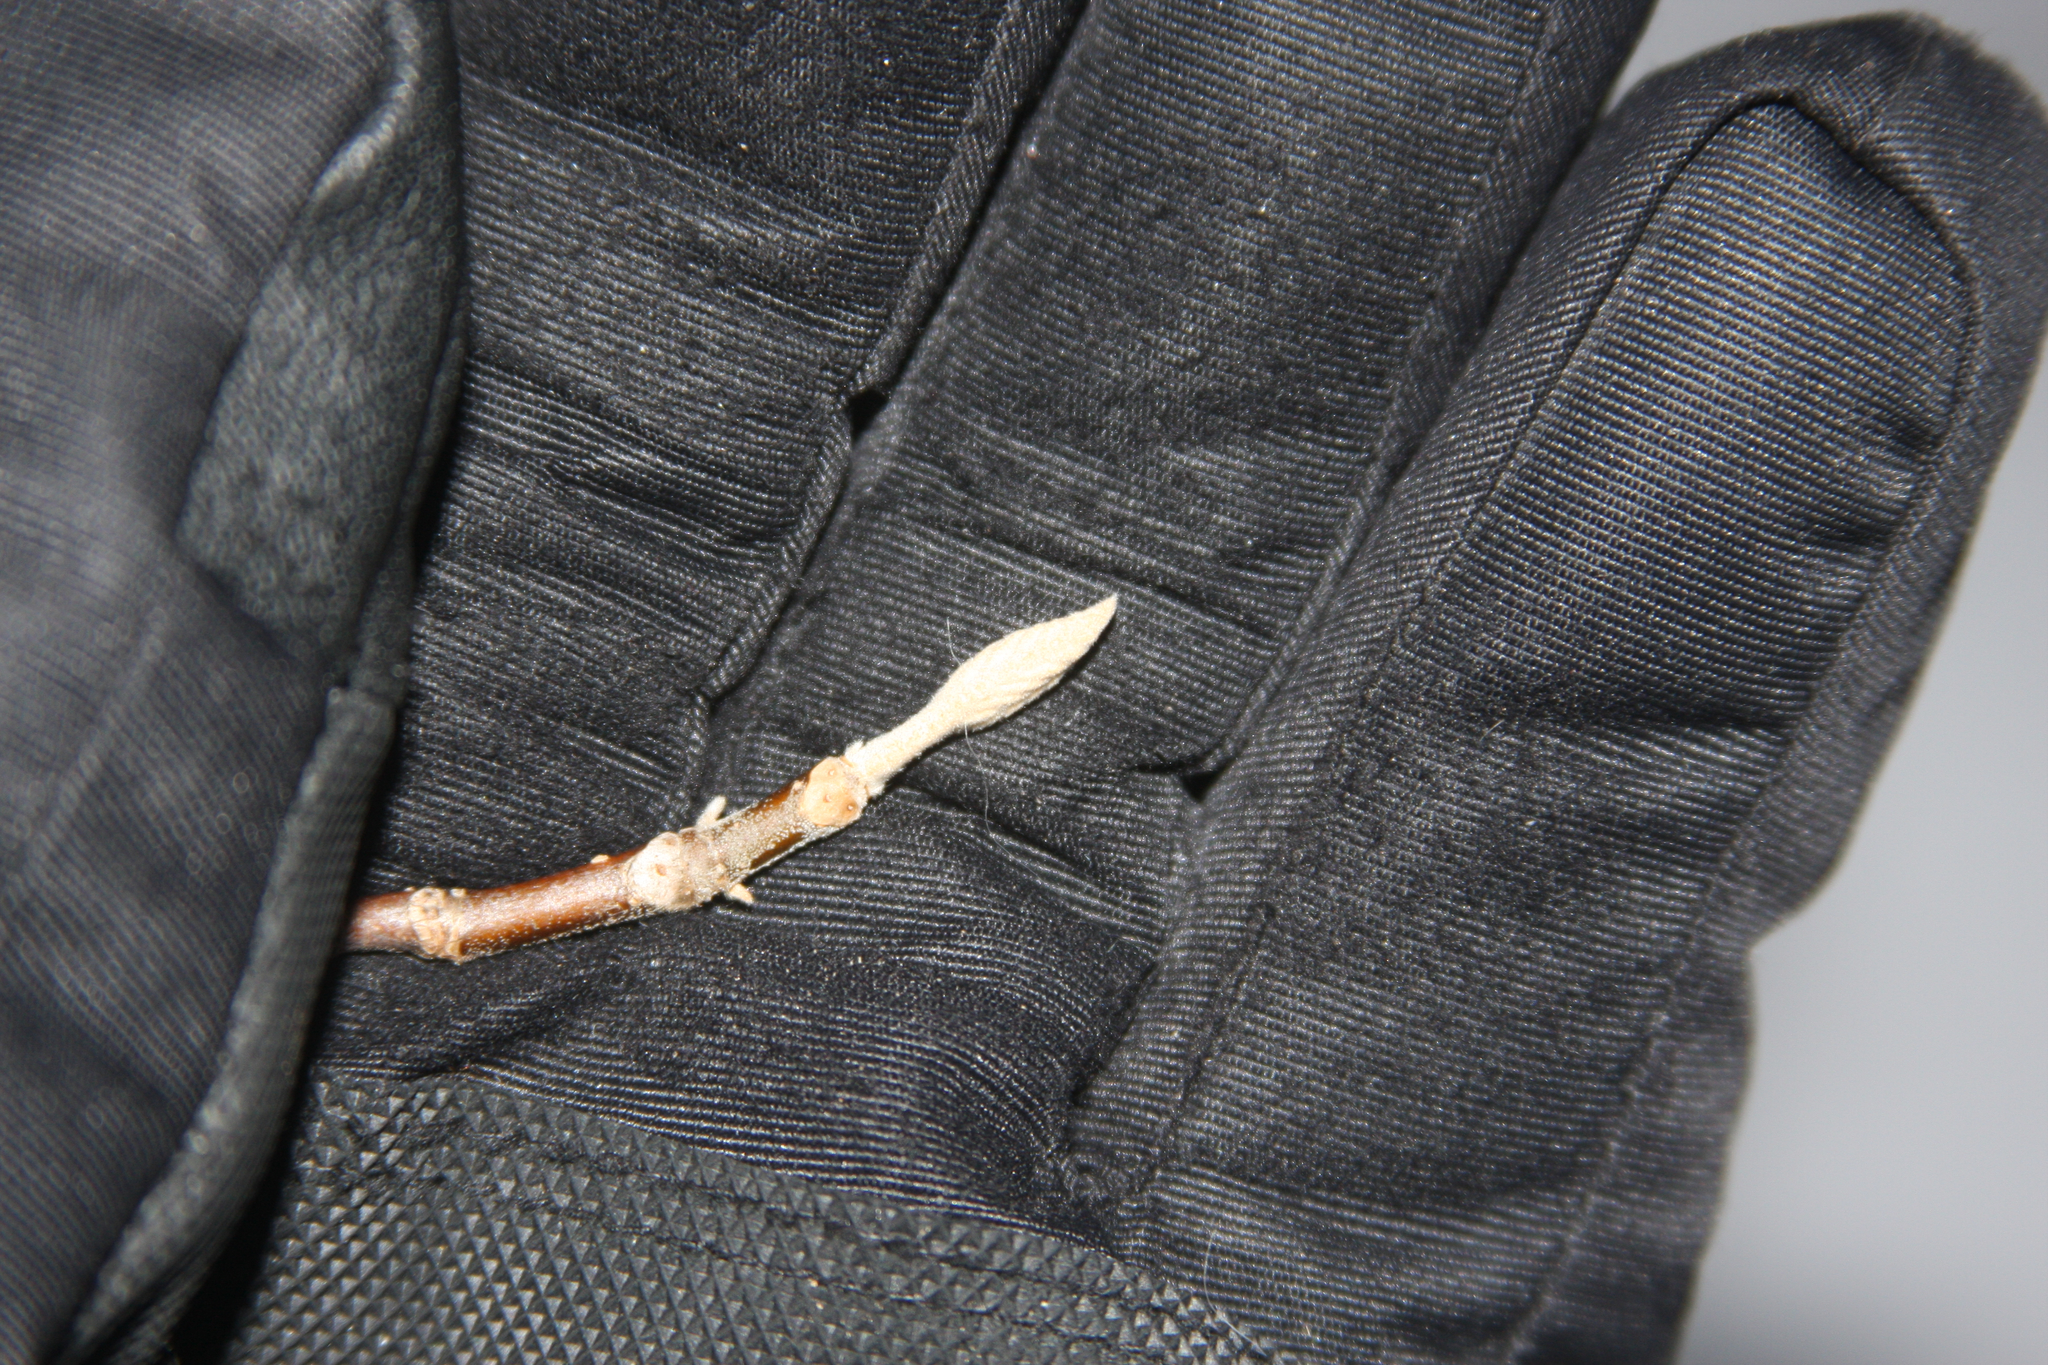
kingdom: Plantae
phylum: Tracheophyta
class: Magnoliopsida
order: Dipsacales
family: Viburnaceae
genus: Viburnum
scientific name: Viburnum lantanoides
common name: Hobblebush
